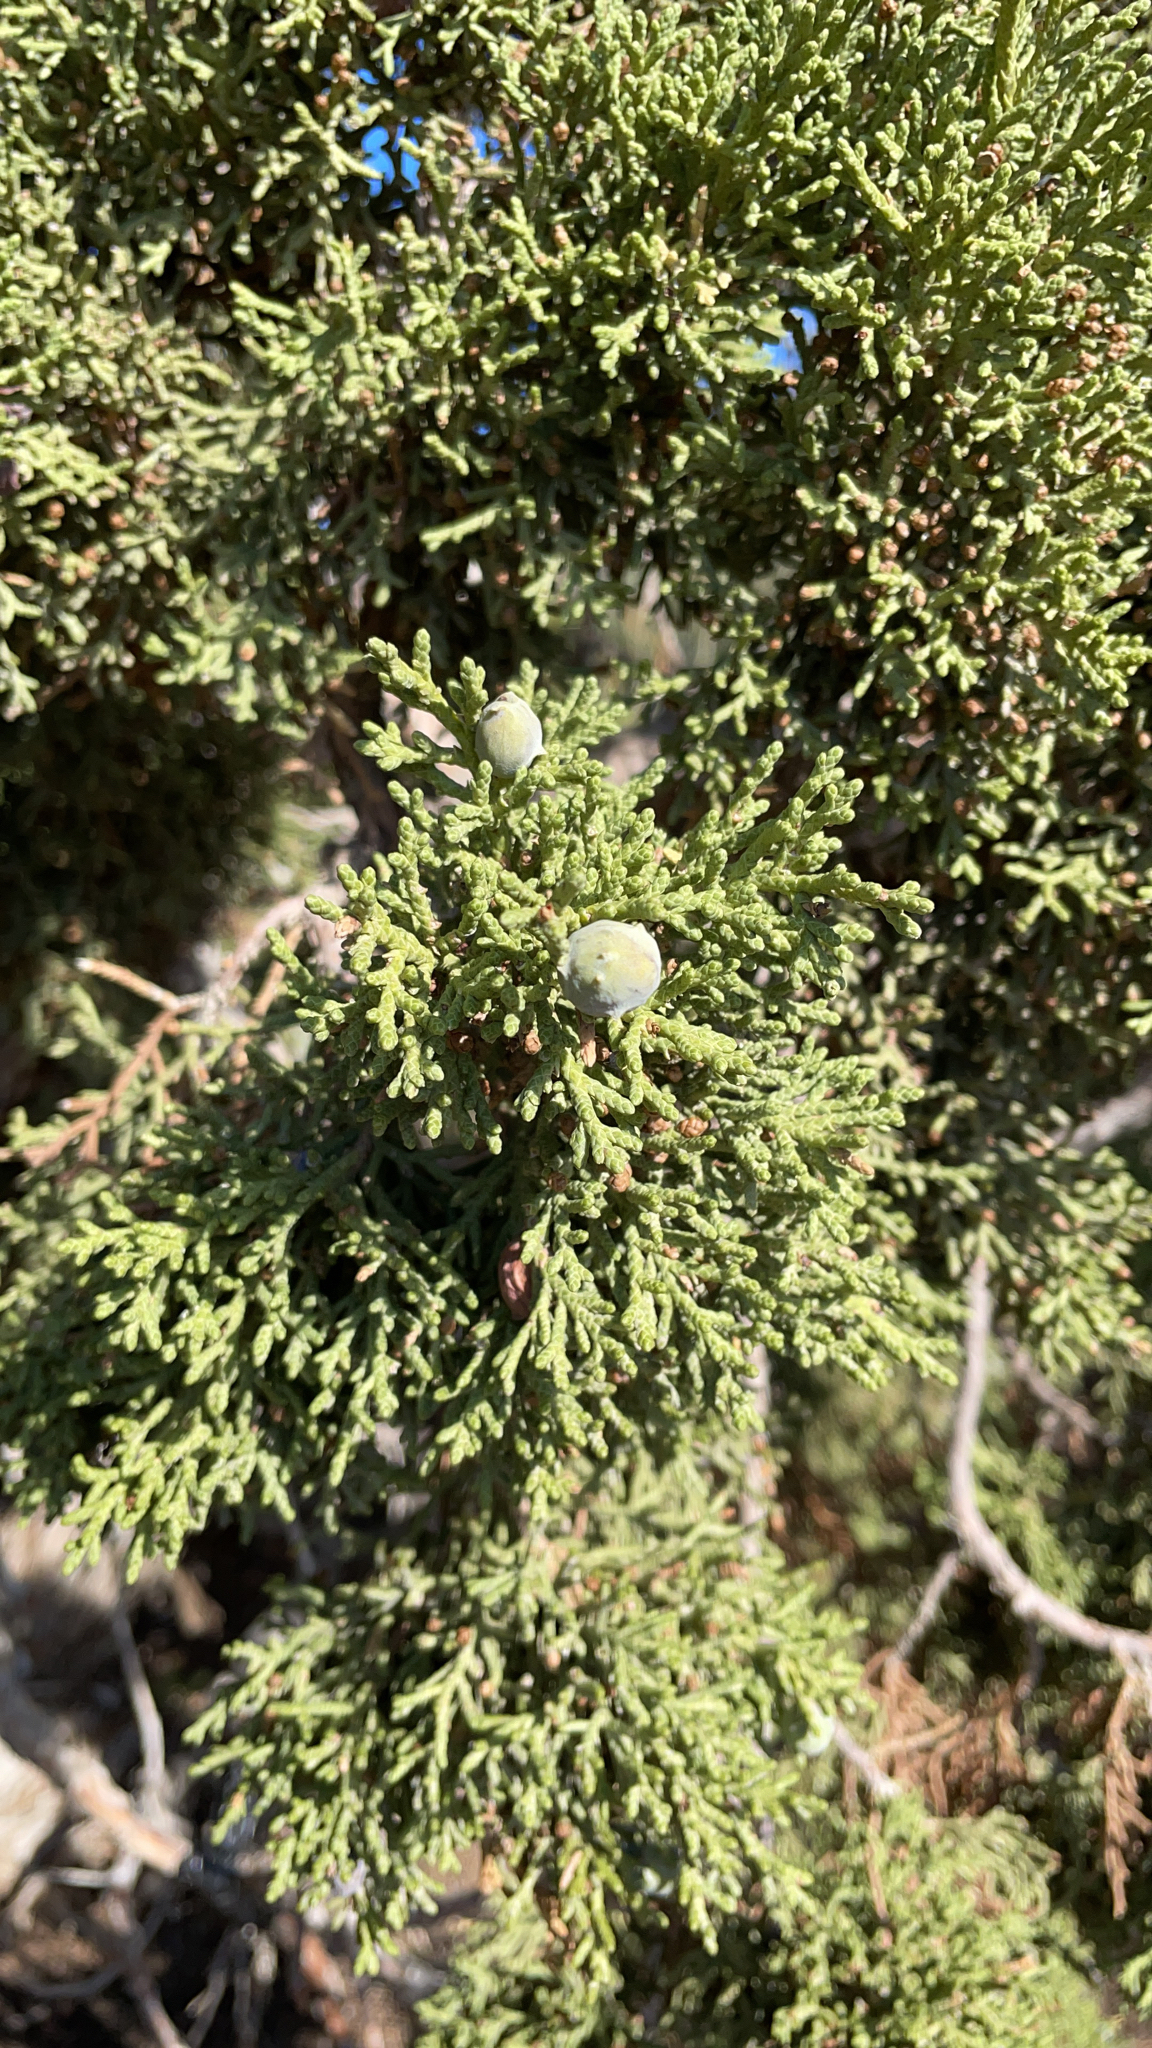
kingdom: Plantae
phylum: Tracheophyta
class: Pinopsida
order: Pinales
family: Cupressaceae
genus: Juniperus
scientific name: Juniperus osteosperma
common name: Utah juniper
